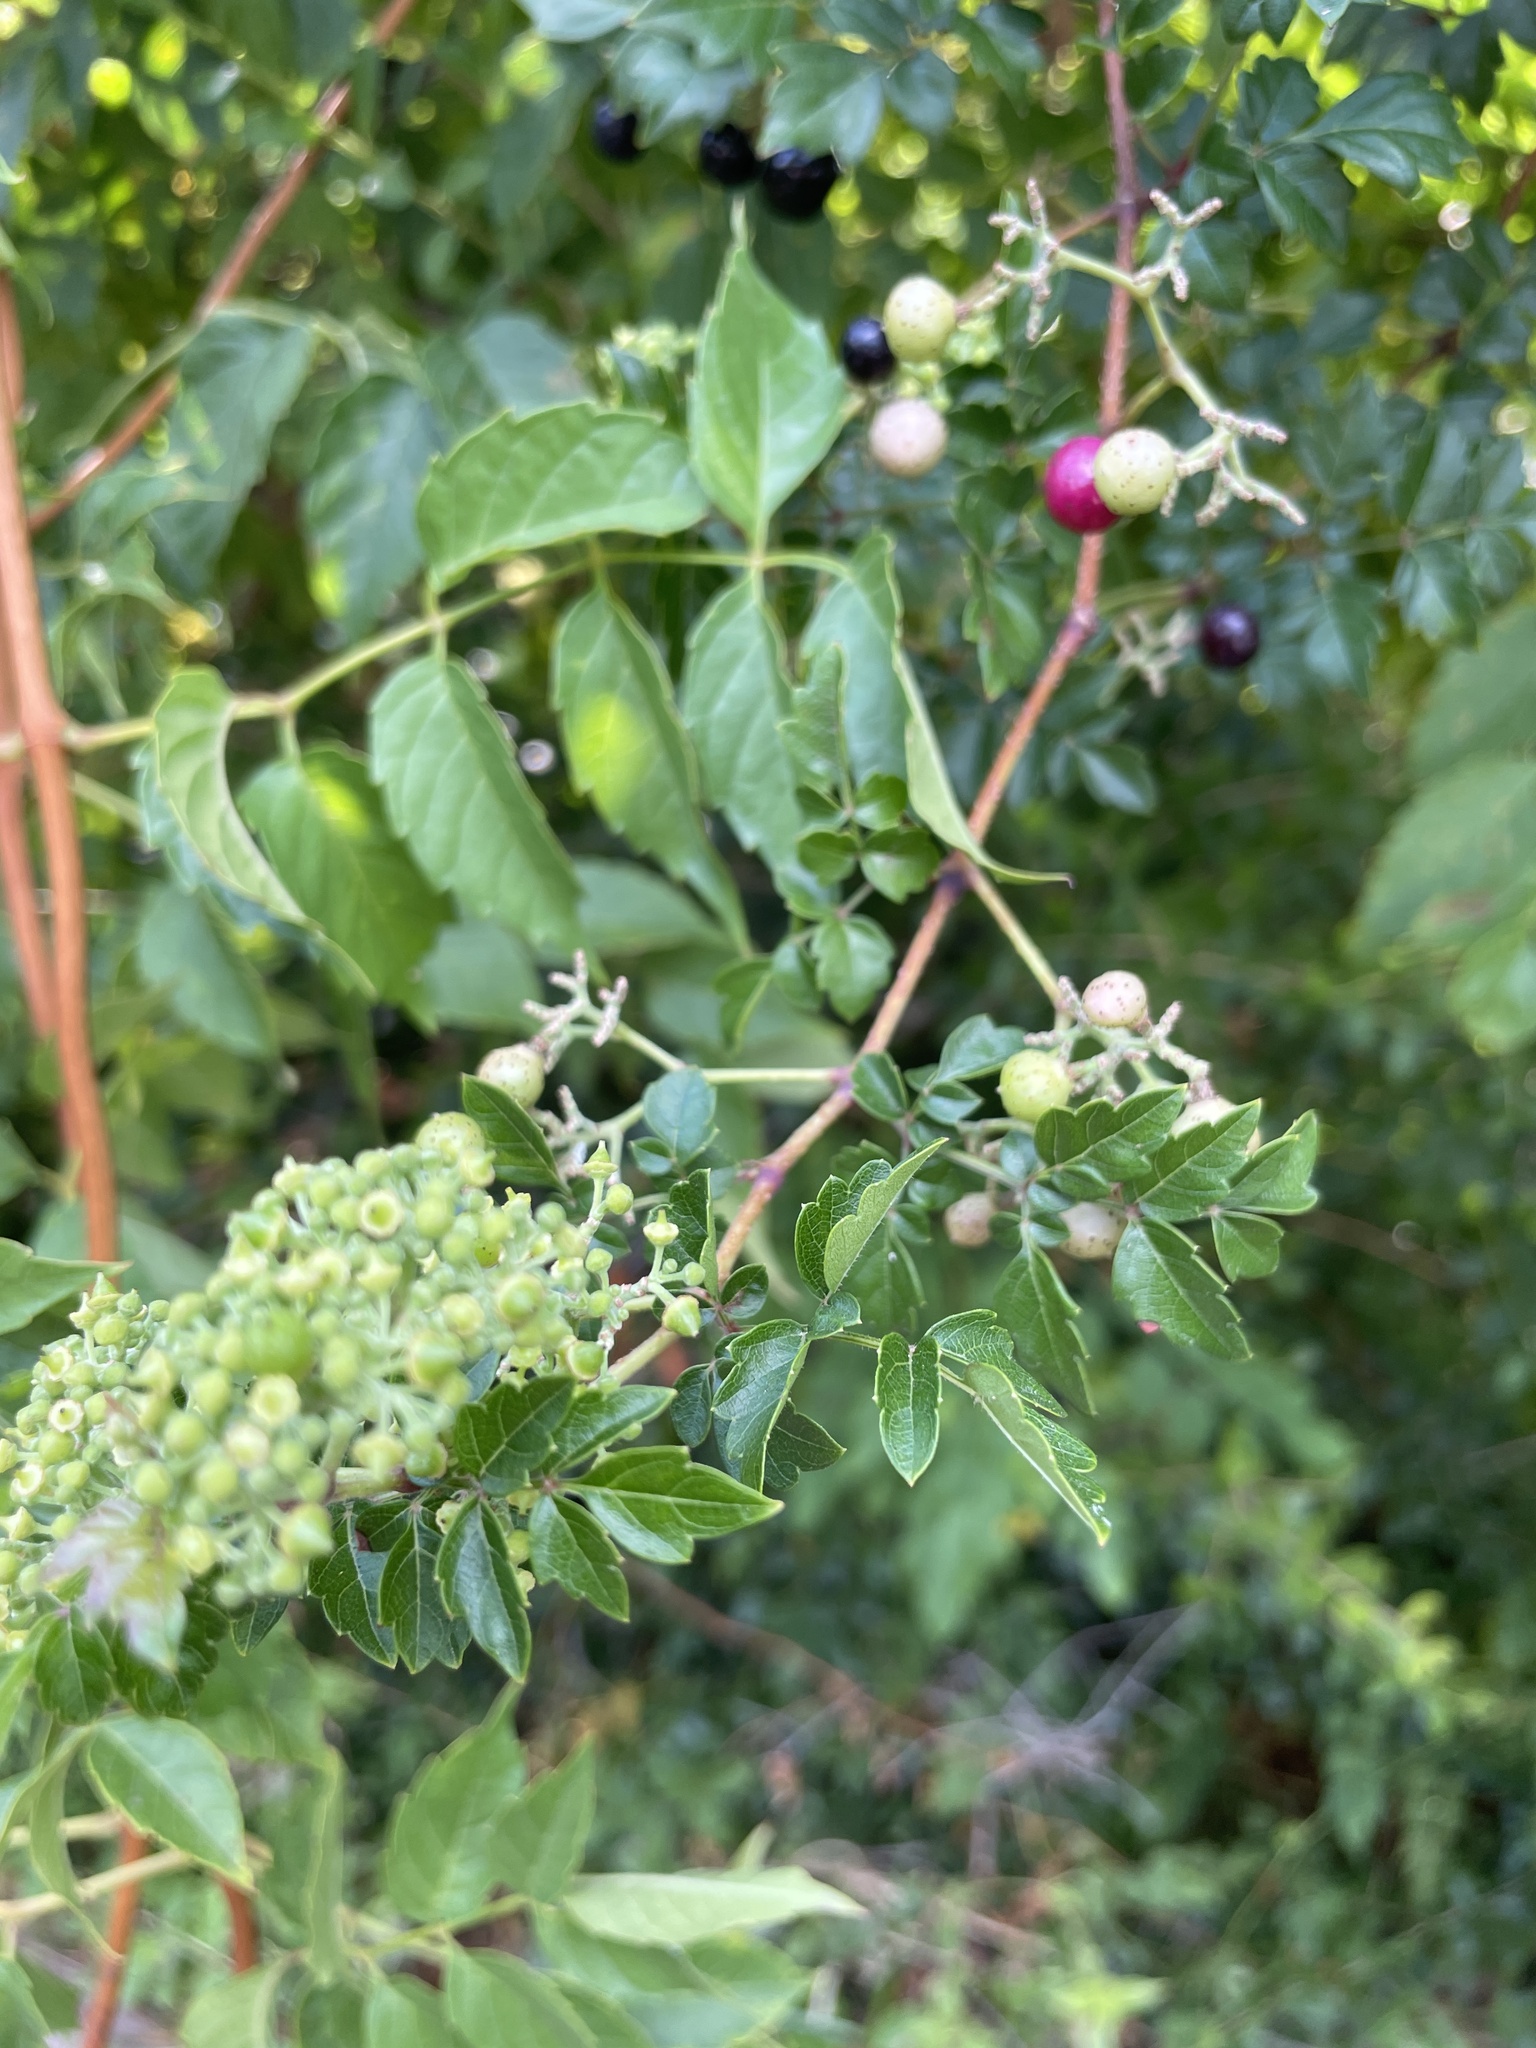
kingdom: Plantae
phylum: Tracheophyta
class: Magnoliopsida
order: Vitales
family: Vitaceae
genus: Nekemias
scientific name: Nekemias arborea
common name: Peppervine
